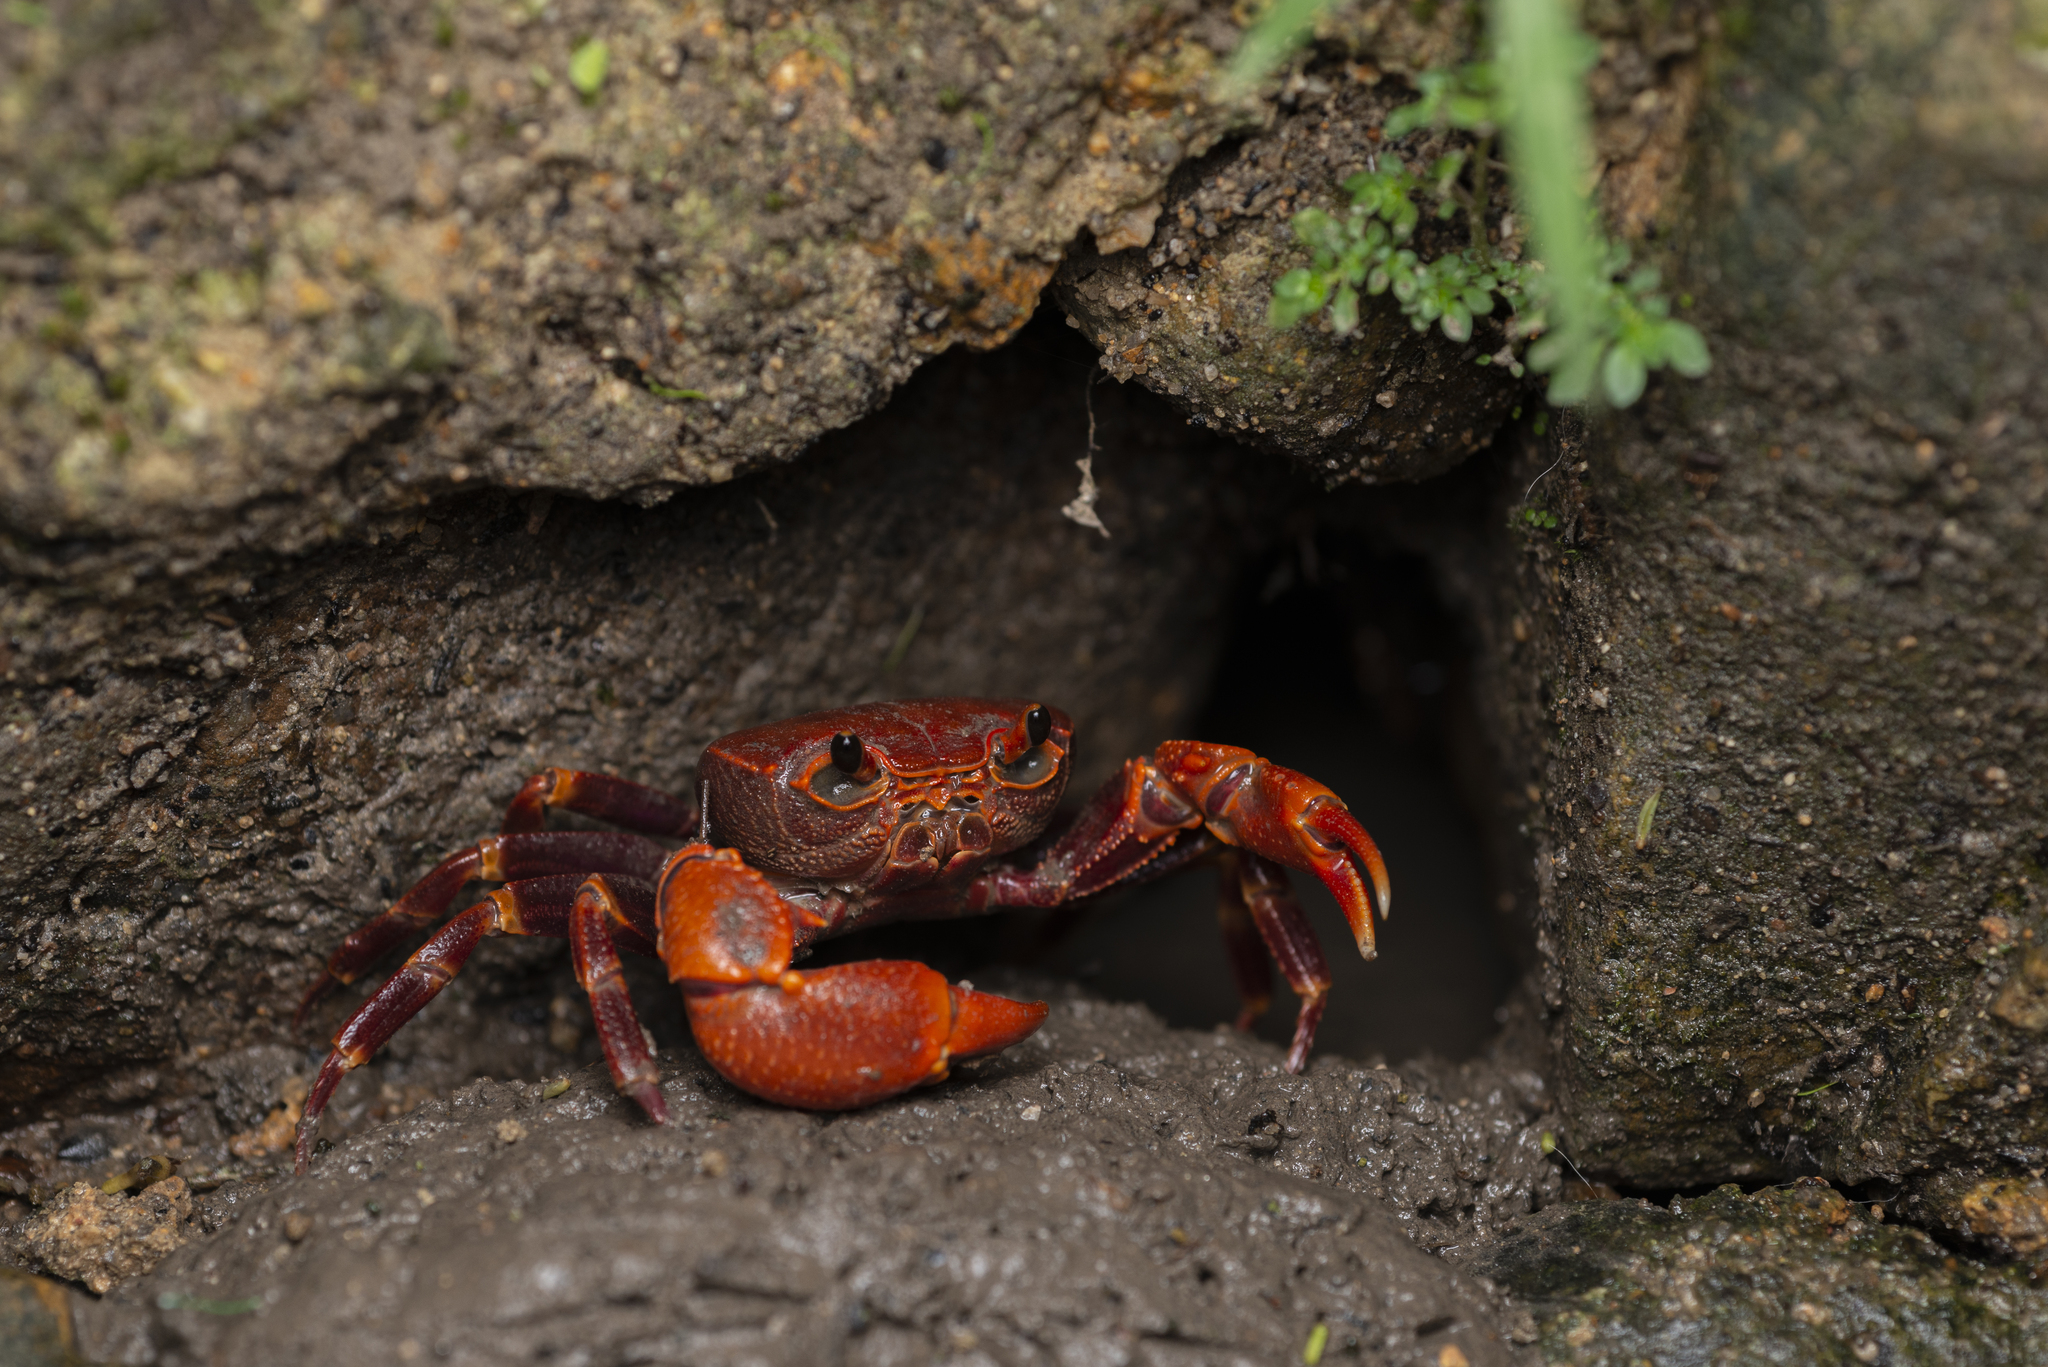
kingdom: Animalia
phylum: Arthropoda
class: Malacostraca
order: Decapoda
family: Potamidae
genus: Nanhaipotamon
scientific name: Nanhaipotamon hongkongense
